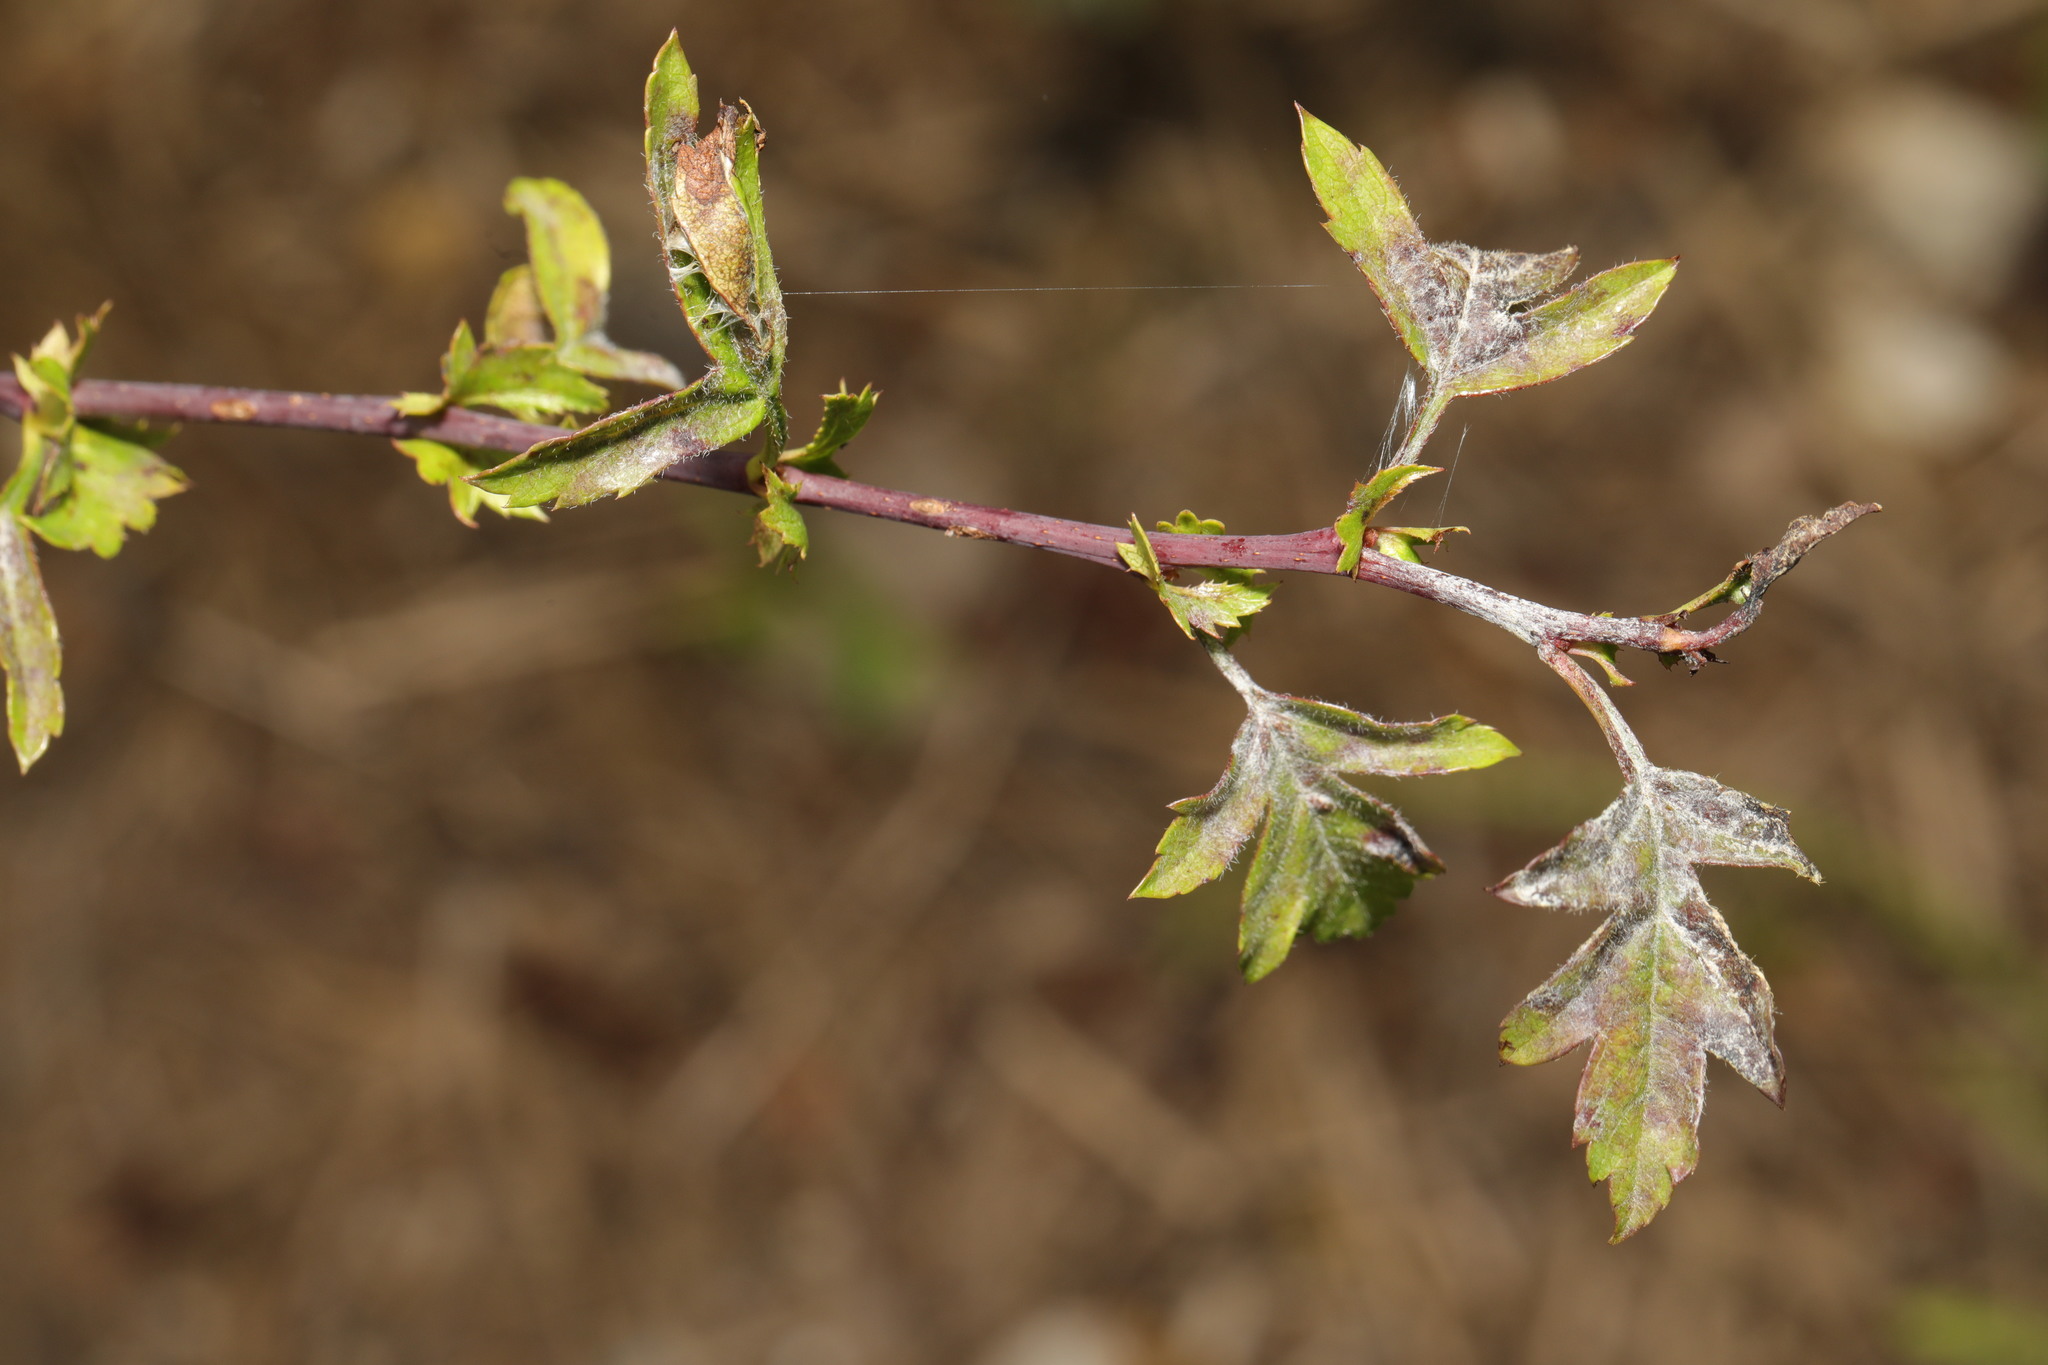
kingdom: Fungi
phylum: Ascomycota
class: Leotiomycetes
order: Helotiales
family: Erysiphaceae
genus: Podosphaera
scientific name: Podosphaera clandestina
